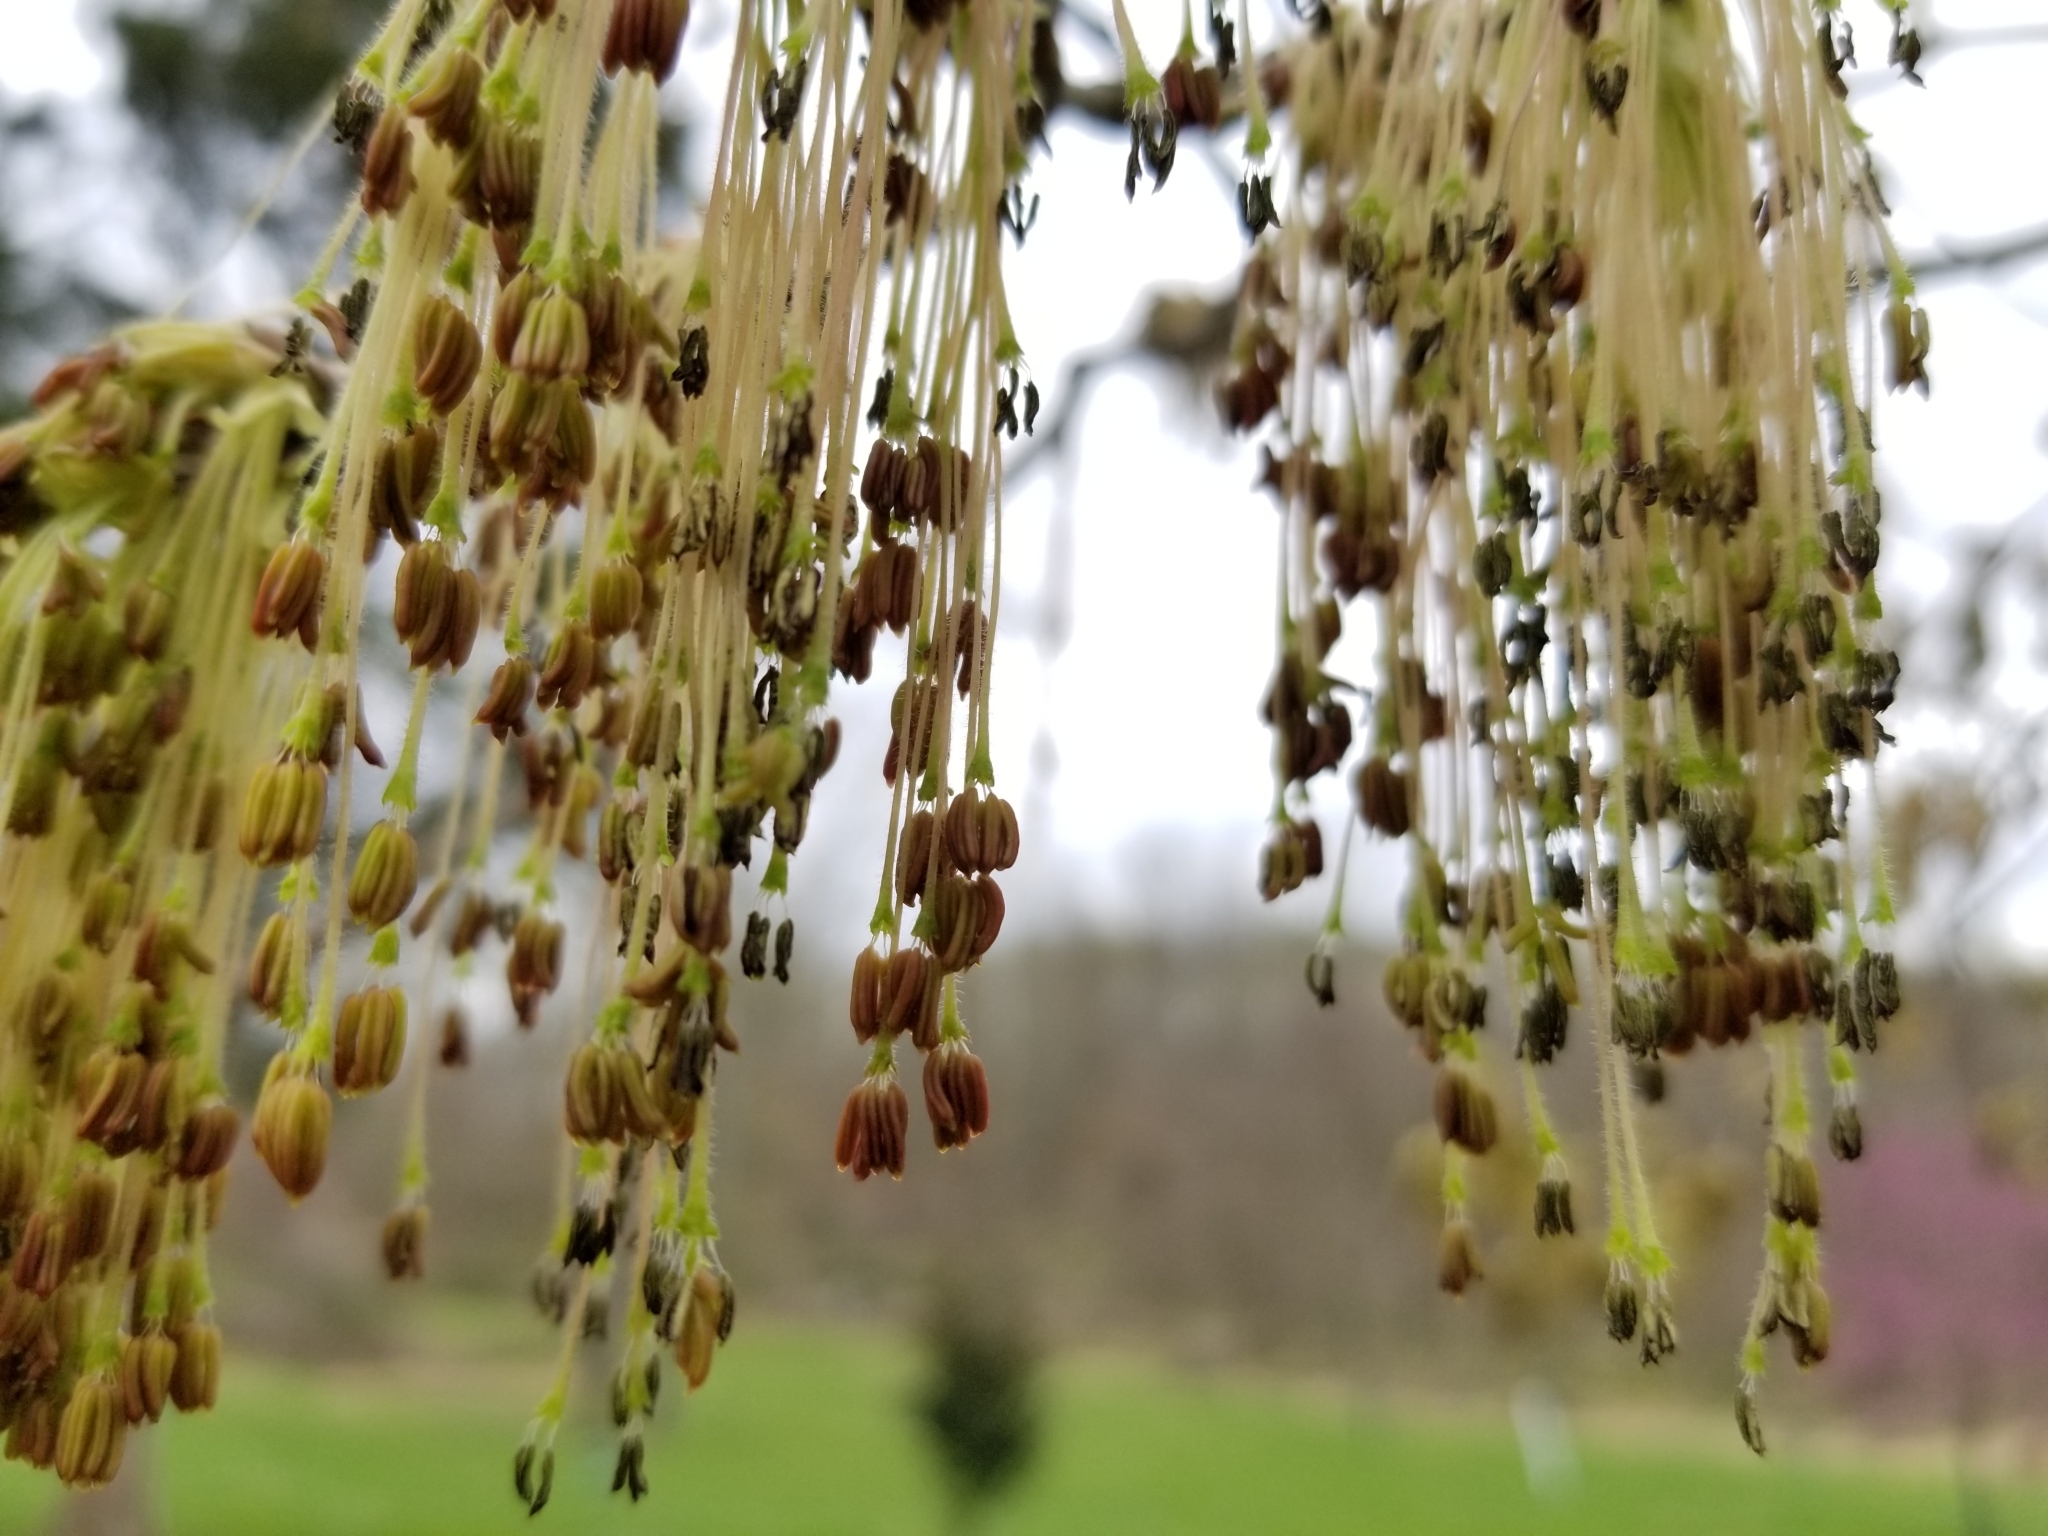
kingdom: Plantae
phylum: Tracheophyta
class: Magnoliopsida
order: Sapindales
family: Sapindaceae
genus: Acer
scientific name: Acer negundo
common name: Ashleaf maple
